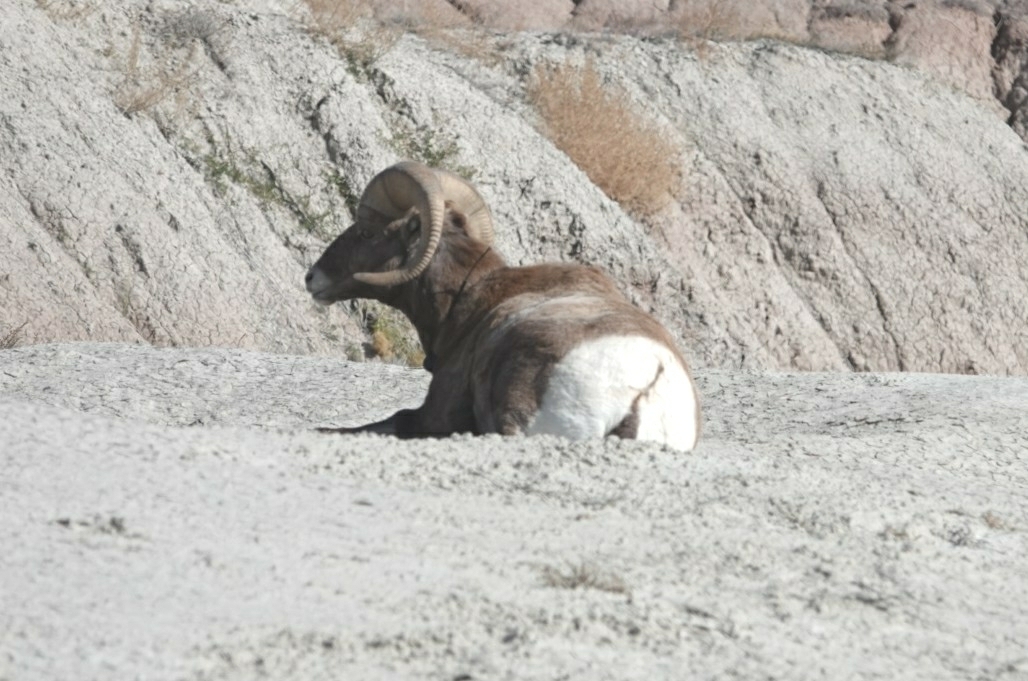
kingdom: Animalia
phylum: Chordata
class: Mammalia
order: Artiodactyla
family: Bovidae
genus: Ovis
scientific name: Ovis canadensis
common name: Bighorn sheep
